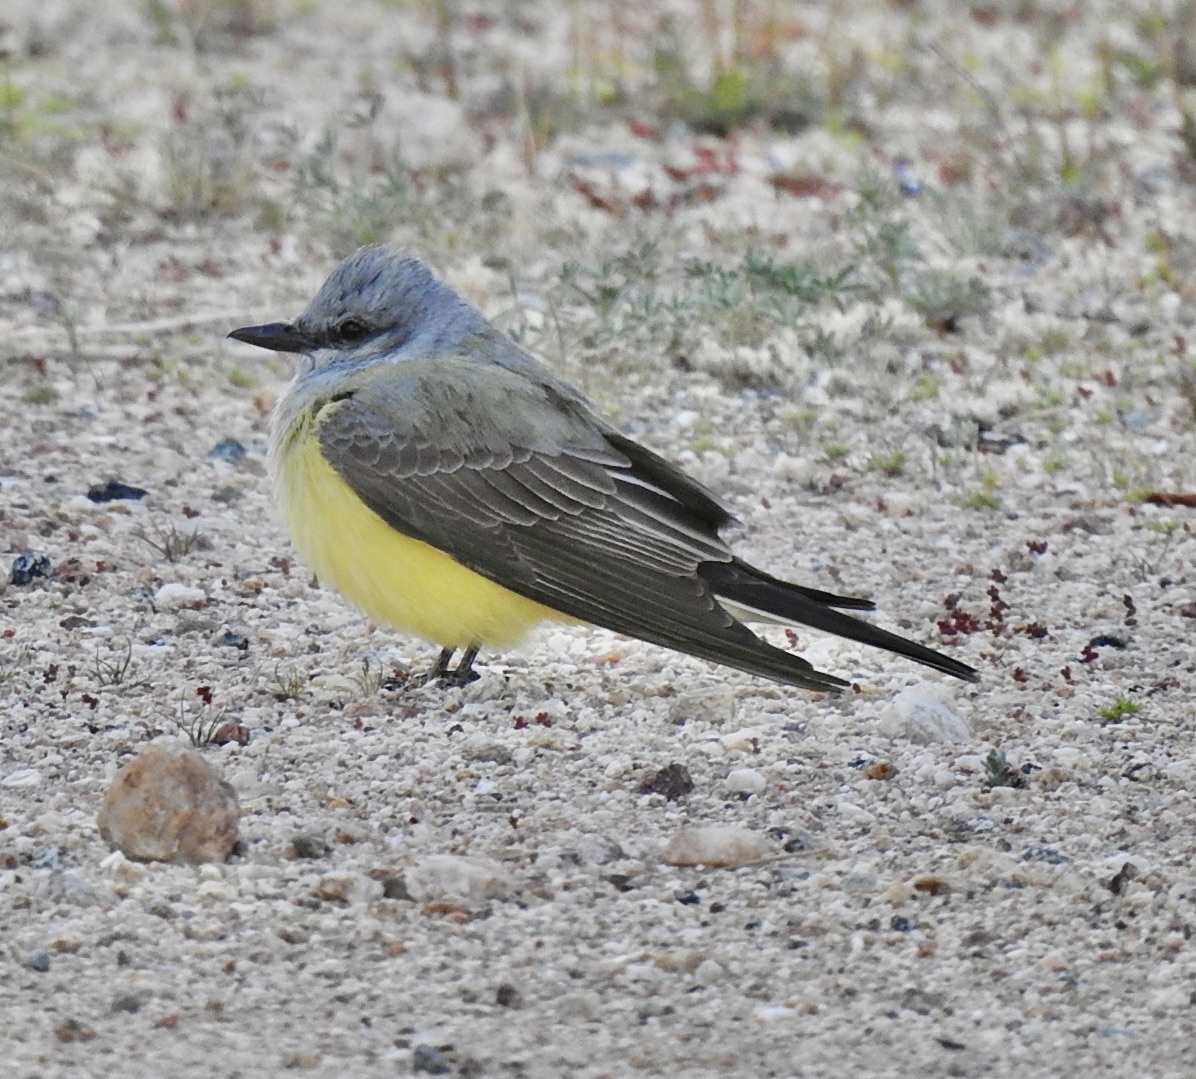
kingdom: Animalia
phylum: Chordata
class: Aves
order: Passeriformes
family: Tyrannidae
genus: Tyrannus
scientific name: Tyrannus verticalis
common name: Western kingbird
